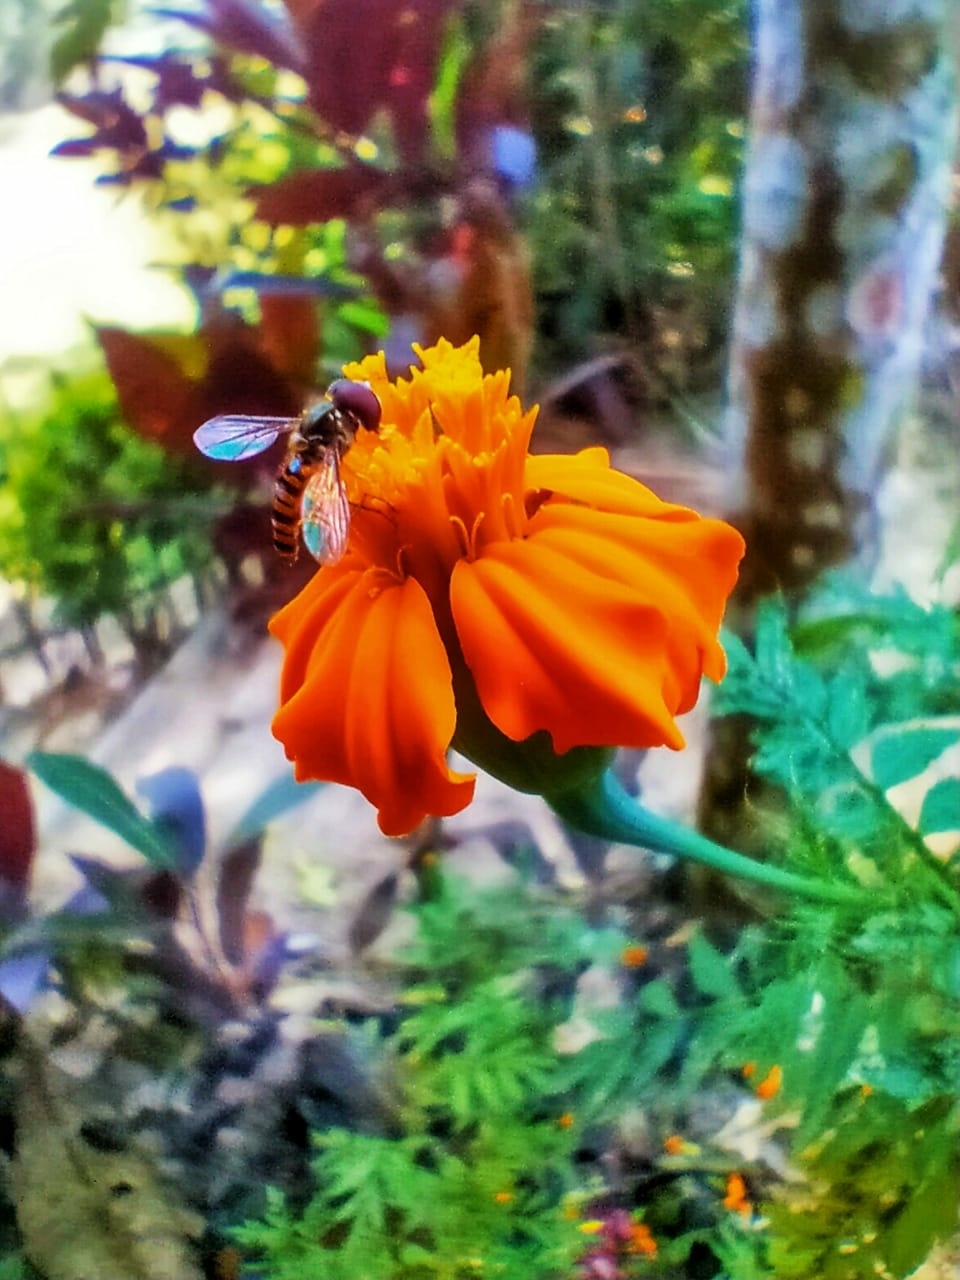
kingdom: Animalia
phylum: Arthropoda
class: Insecta
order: Diptera
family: Syrphidae
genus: Episyrphus
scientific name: Episyrphus balteatus
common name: Marmalade hoverfly
